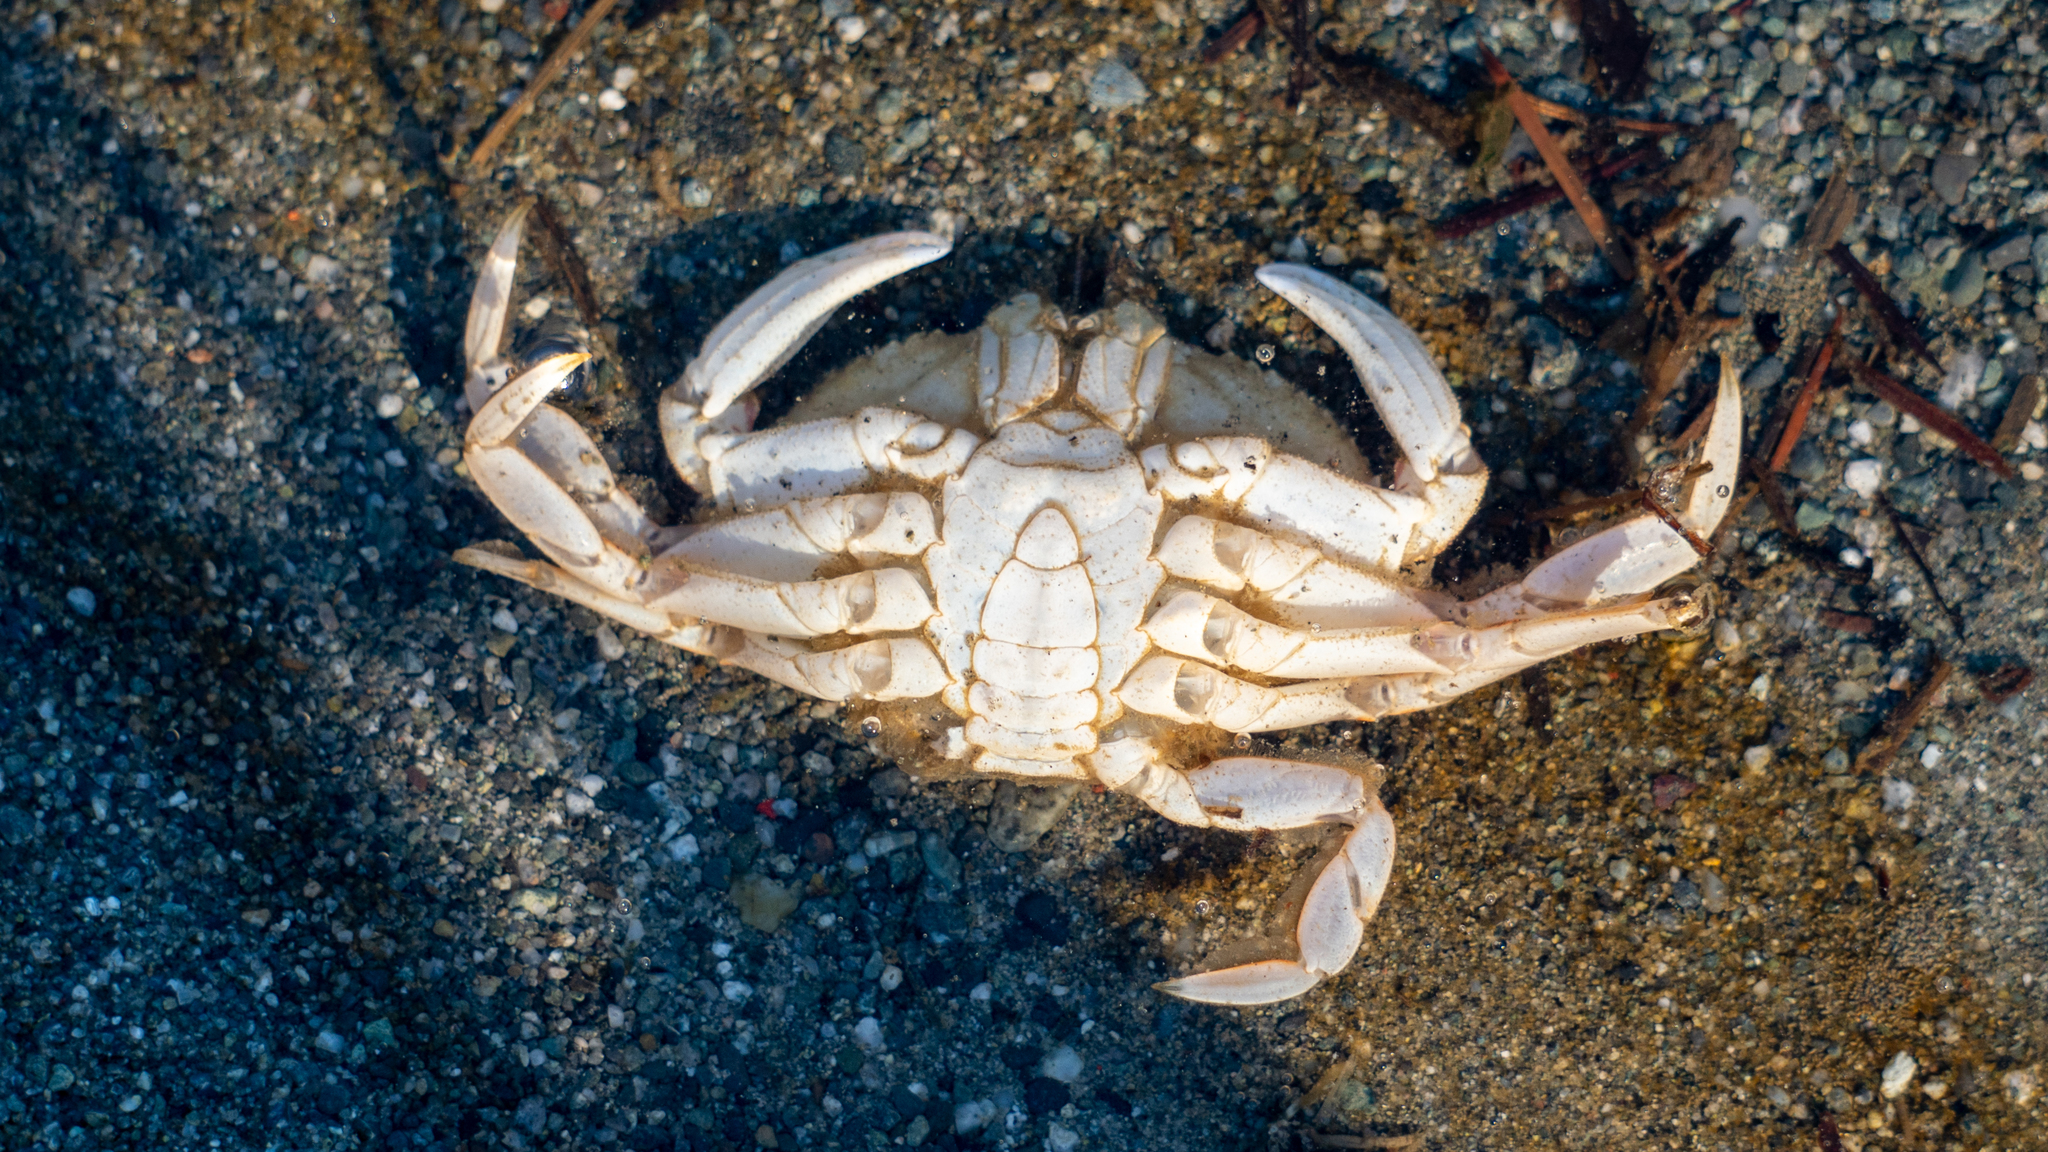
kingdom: Animalia
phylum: Arthropoda
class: Malacostraca
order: Decapoda
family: Cancridae
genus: Metacarcinus
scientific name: Metacarcinus magister
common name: Californian crab
